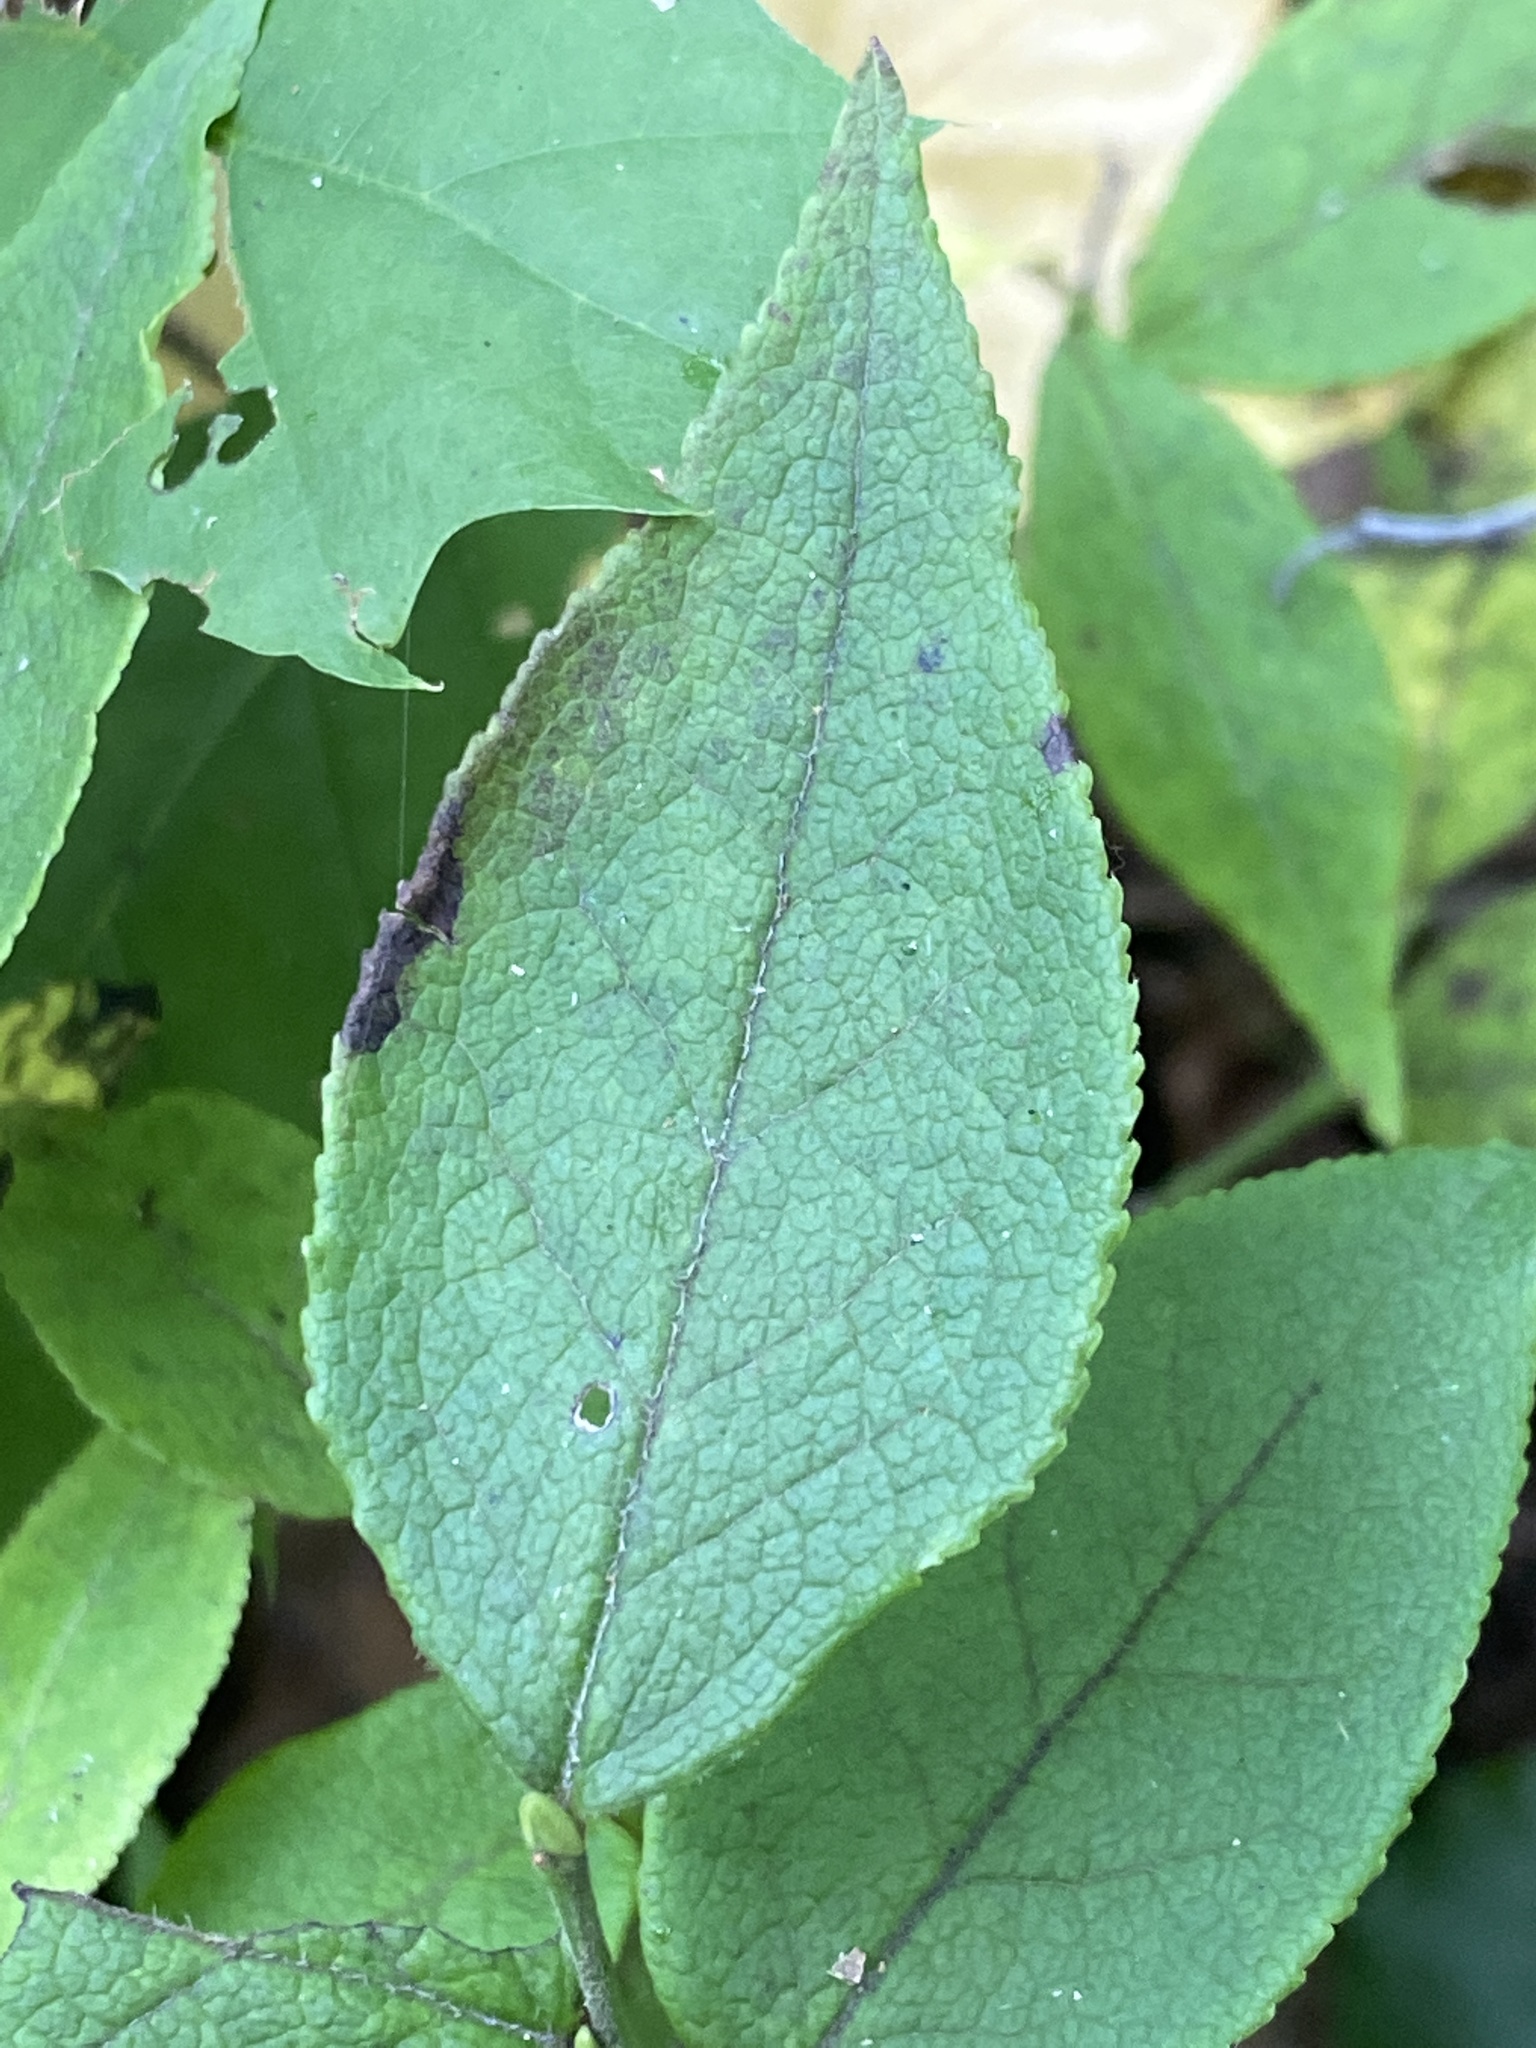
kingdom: Plantae
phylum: Tracheophyta
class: Magnoliopsida
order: Ericales
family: Ericaceae
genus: Vaccinium
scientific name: Vaccinium erythrocarpum
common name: Bearberry
